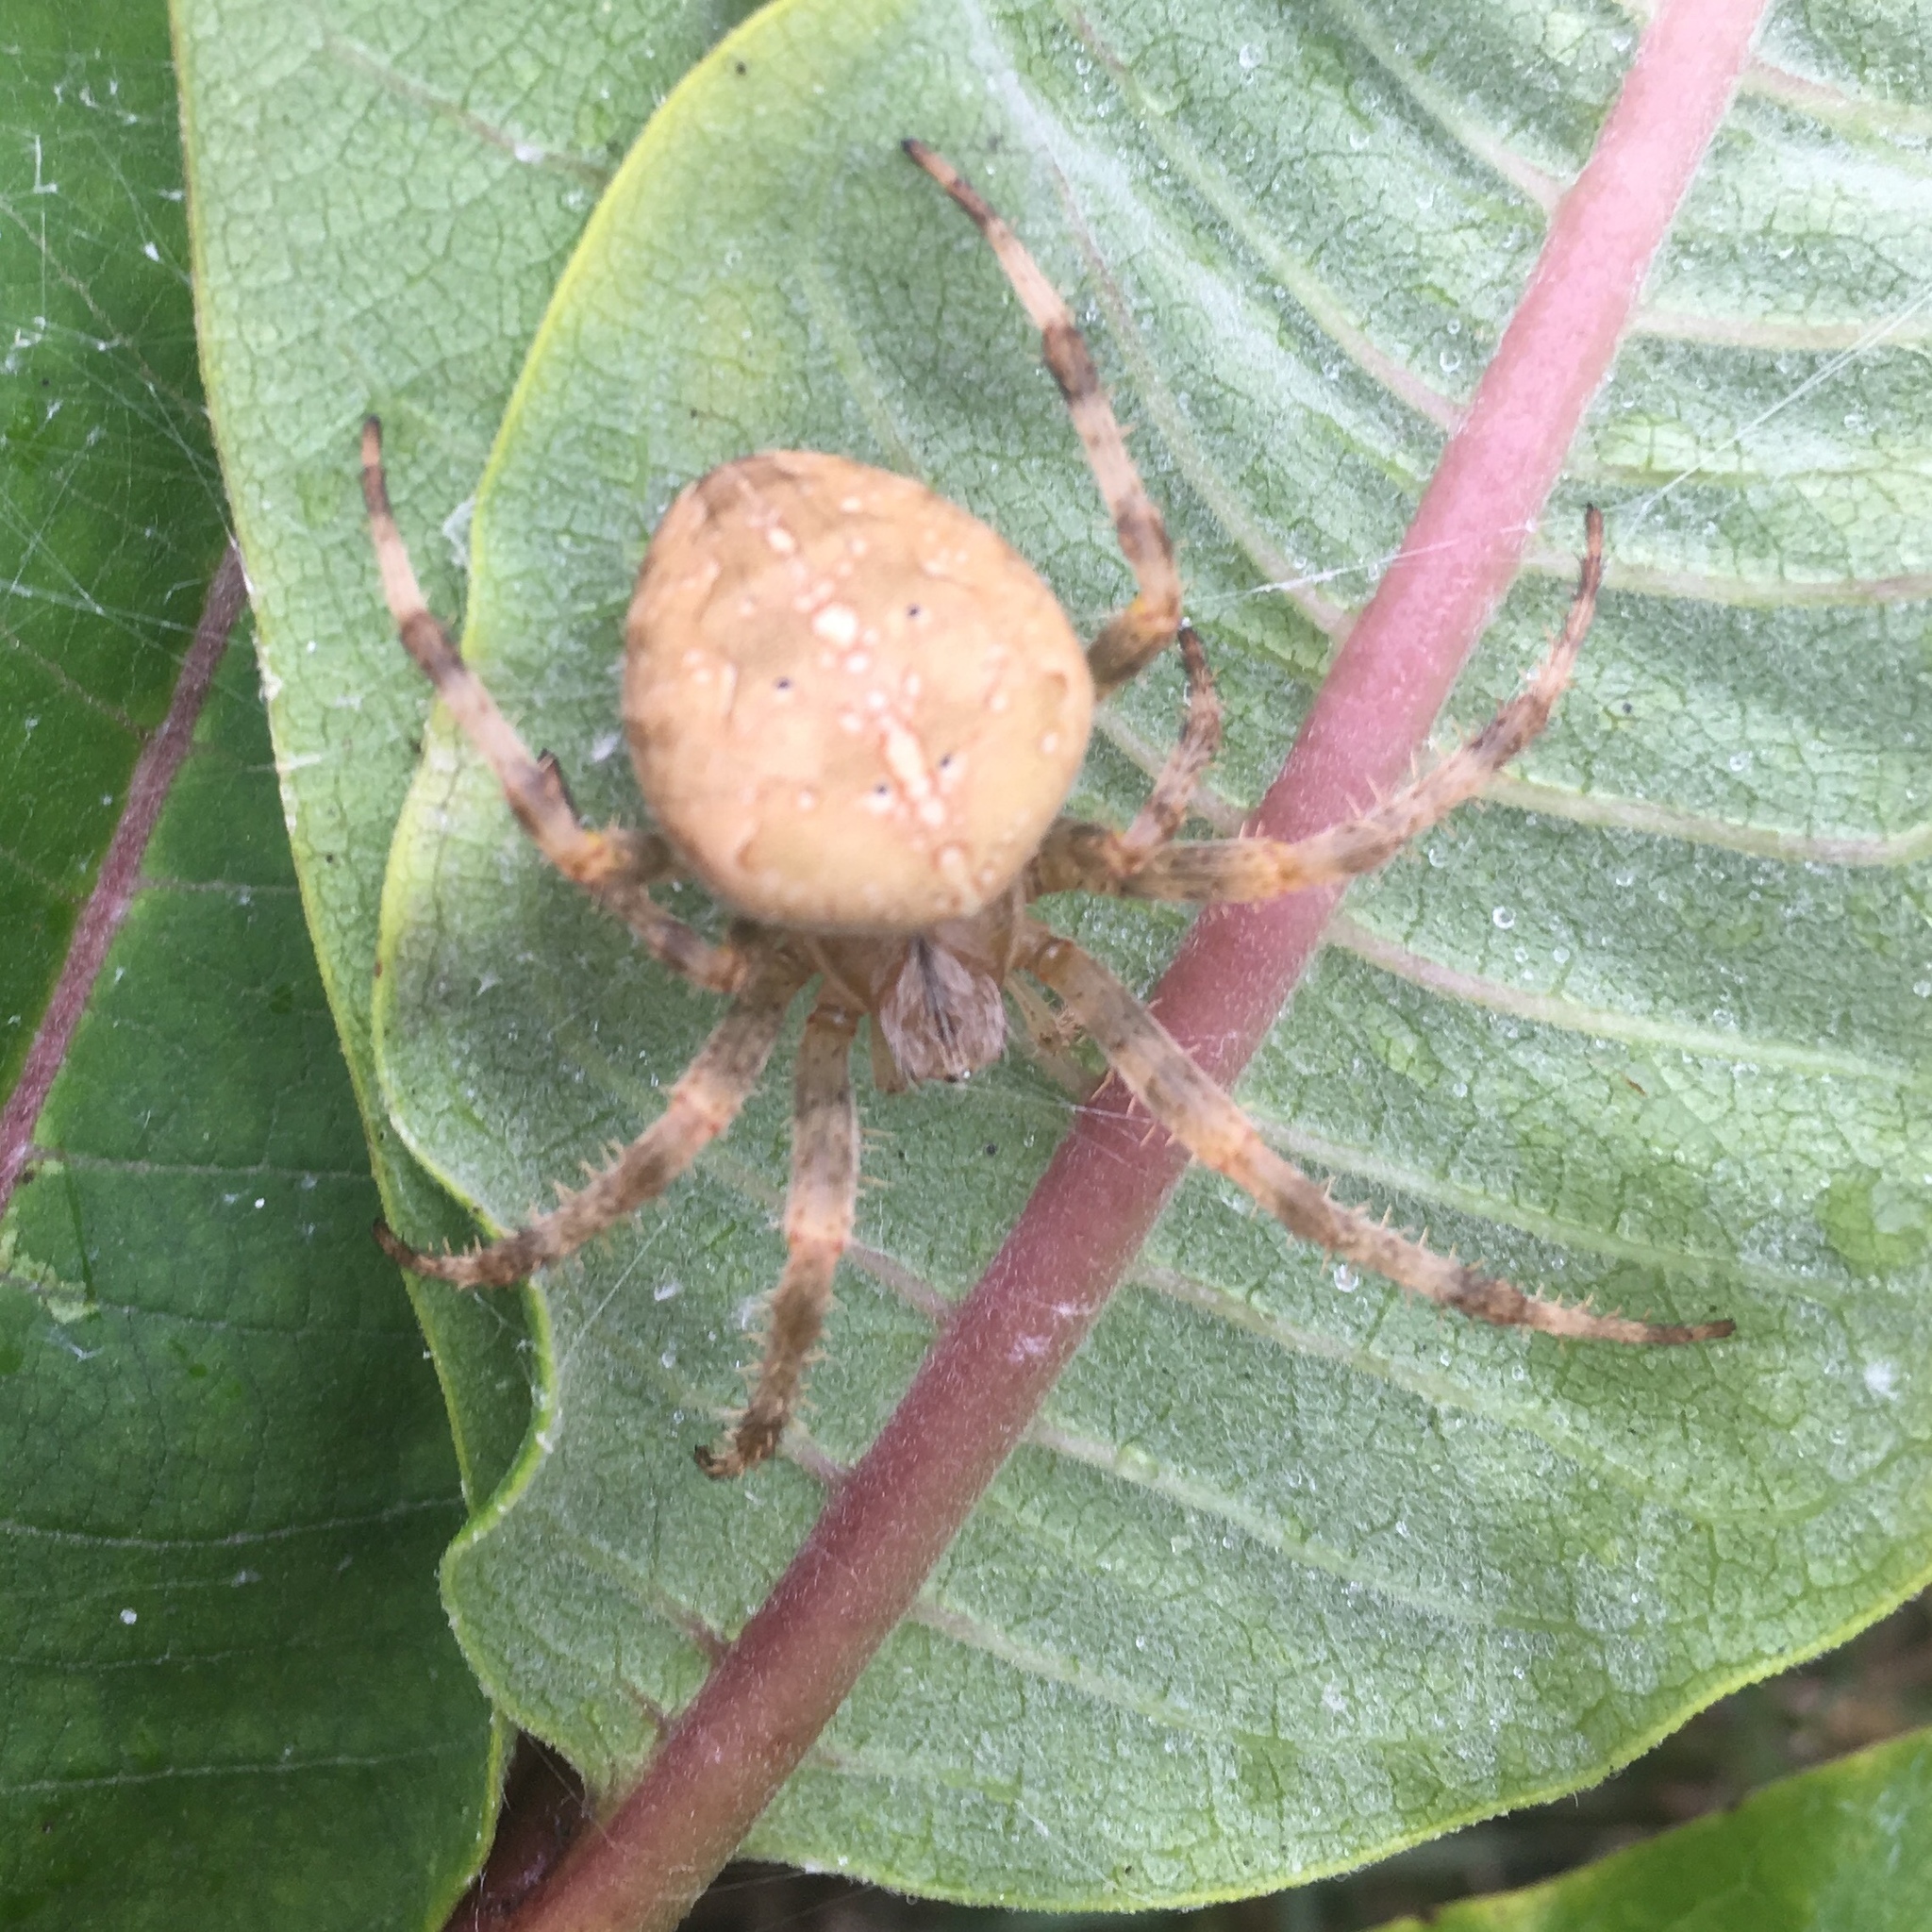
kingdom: Animalia
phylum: Arthropoda
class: Arachnida
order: Araneae
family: Araneidae
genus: Araneus
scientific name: Araneus diadematus
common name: Cross orbweaver
